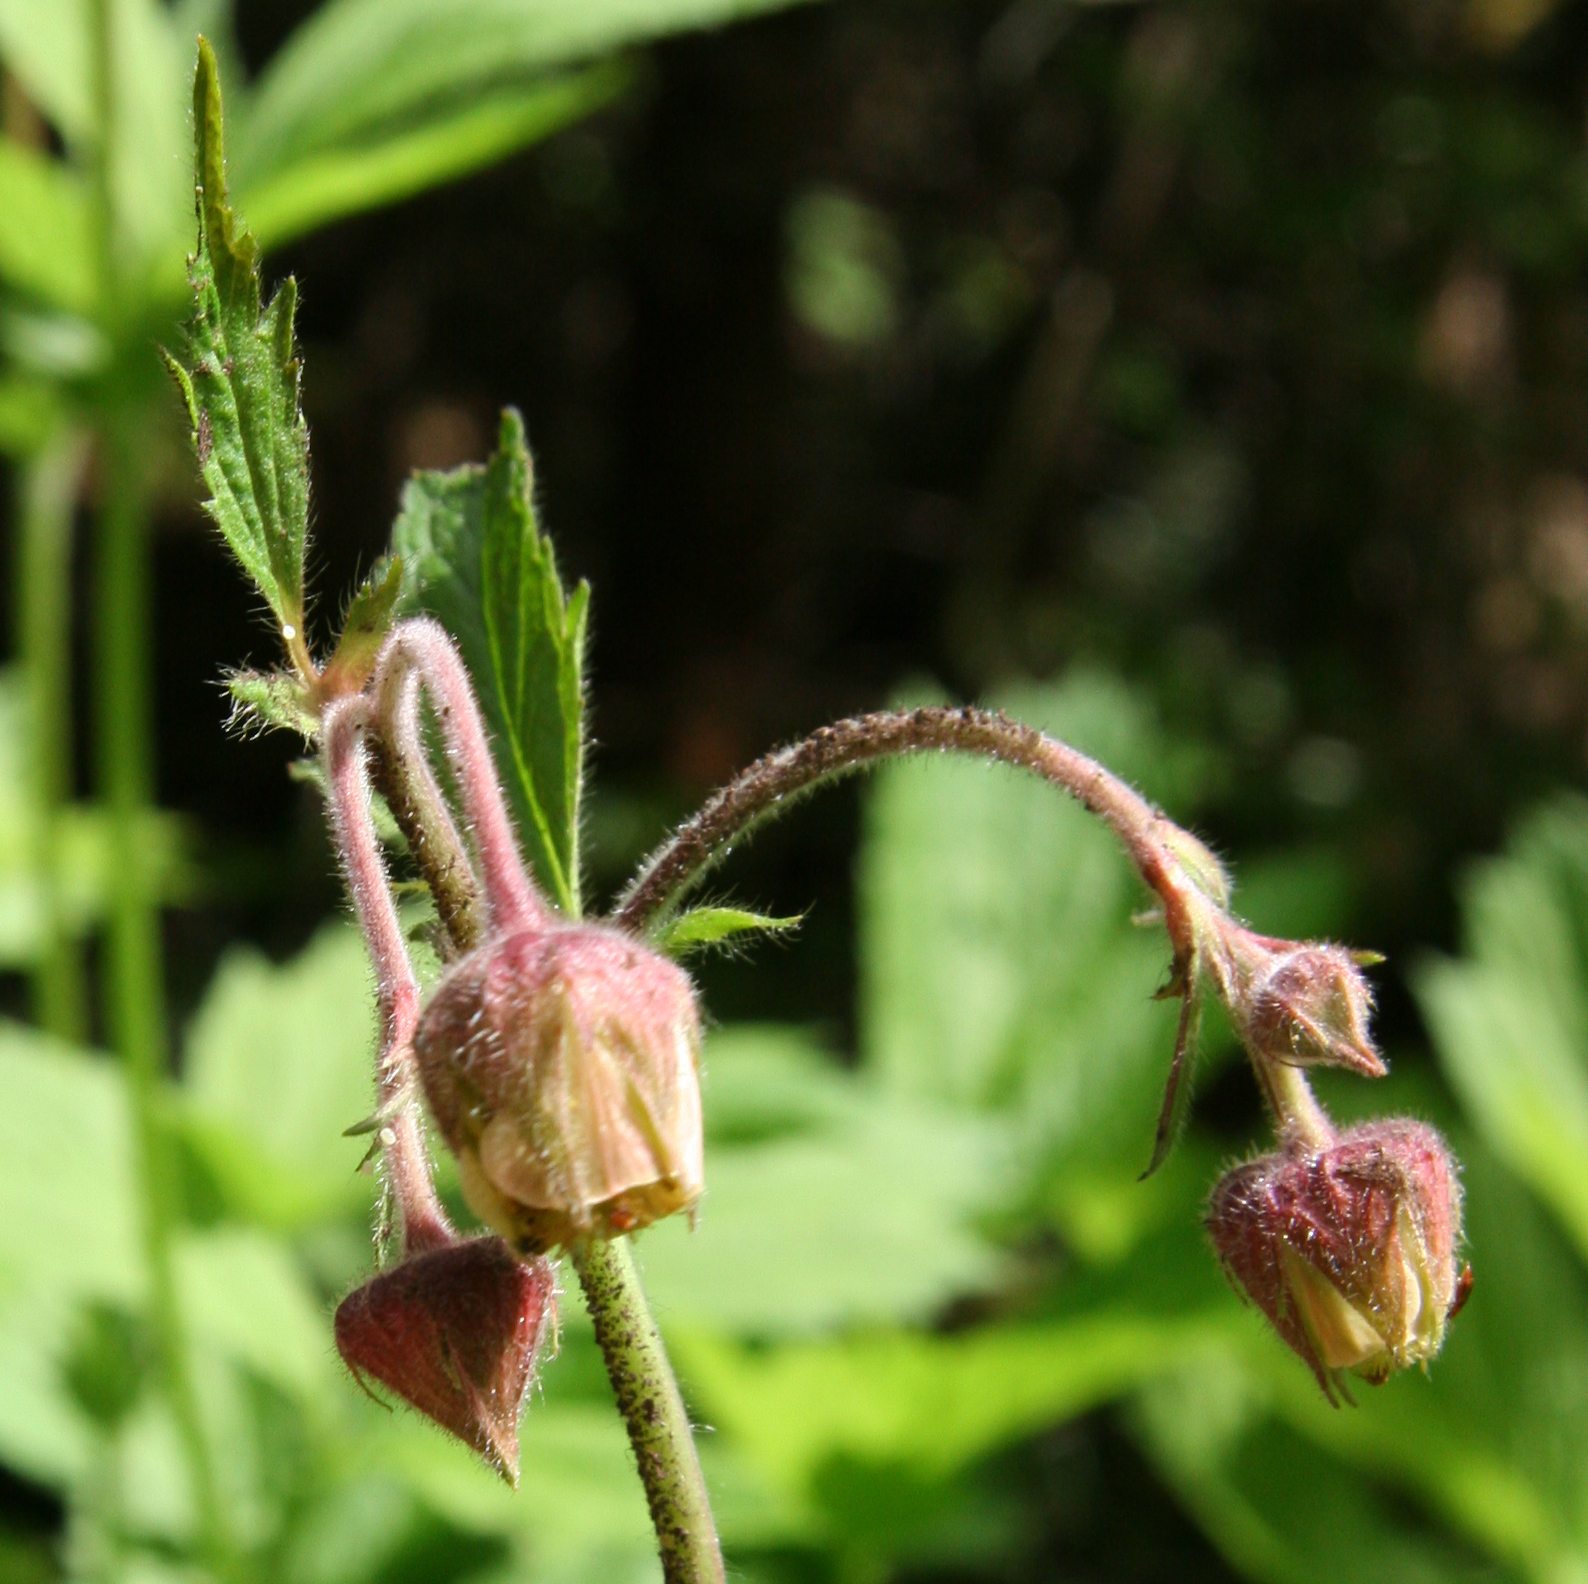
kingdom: Plantae
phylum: Tracheophyta
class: Magnoliopsida
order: Rosales
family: Rosaceae
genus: Geum
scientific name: Geum rivale
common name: Water avens
